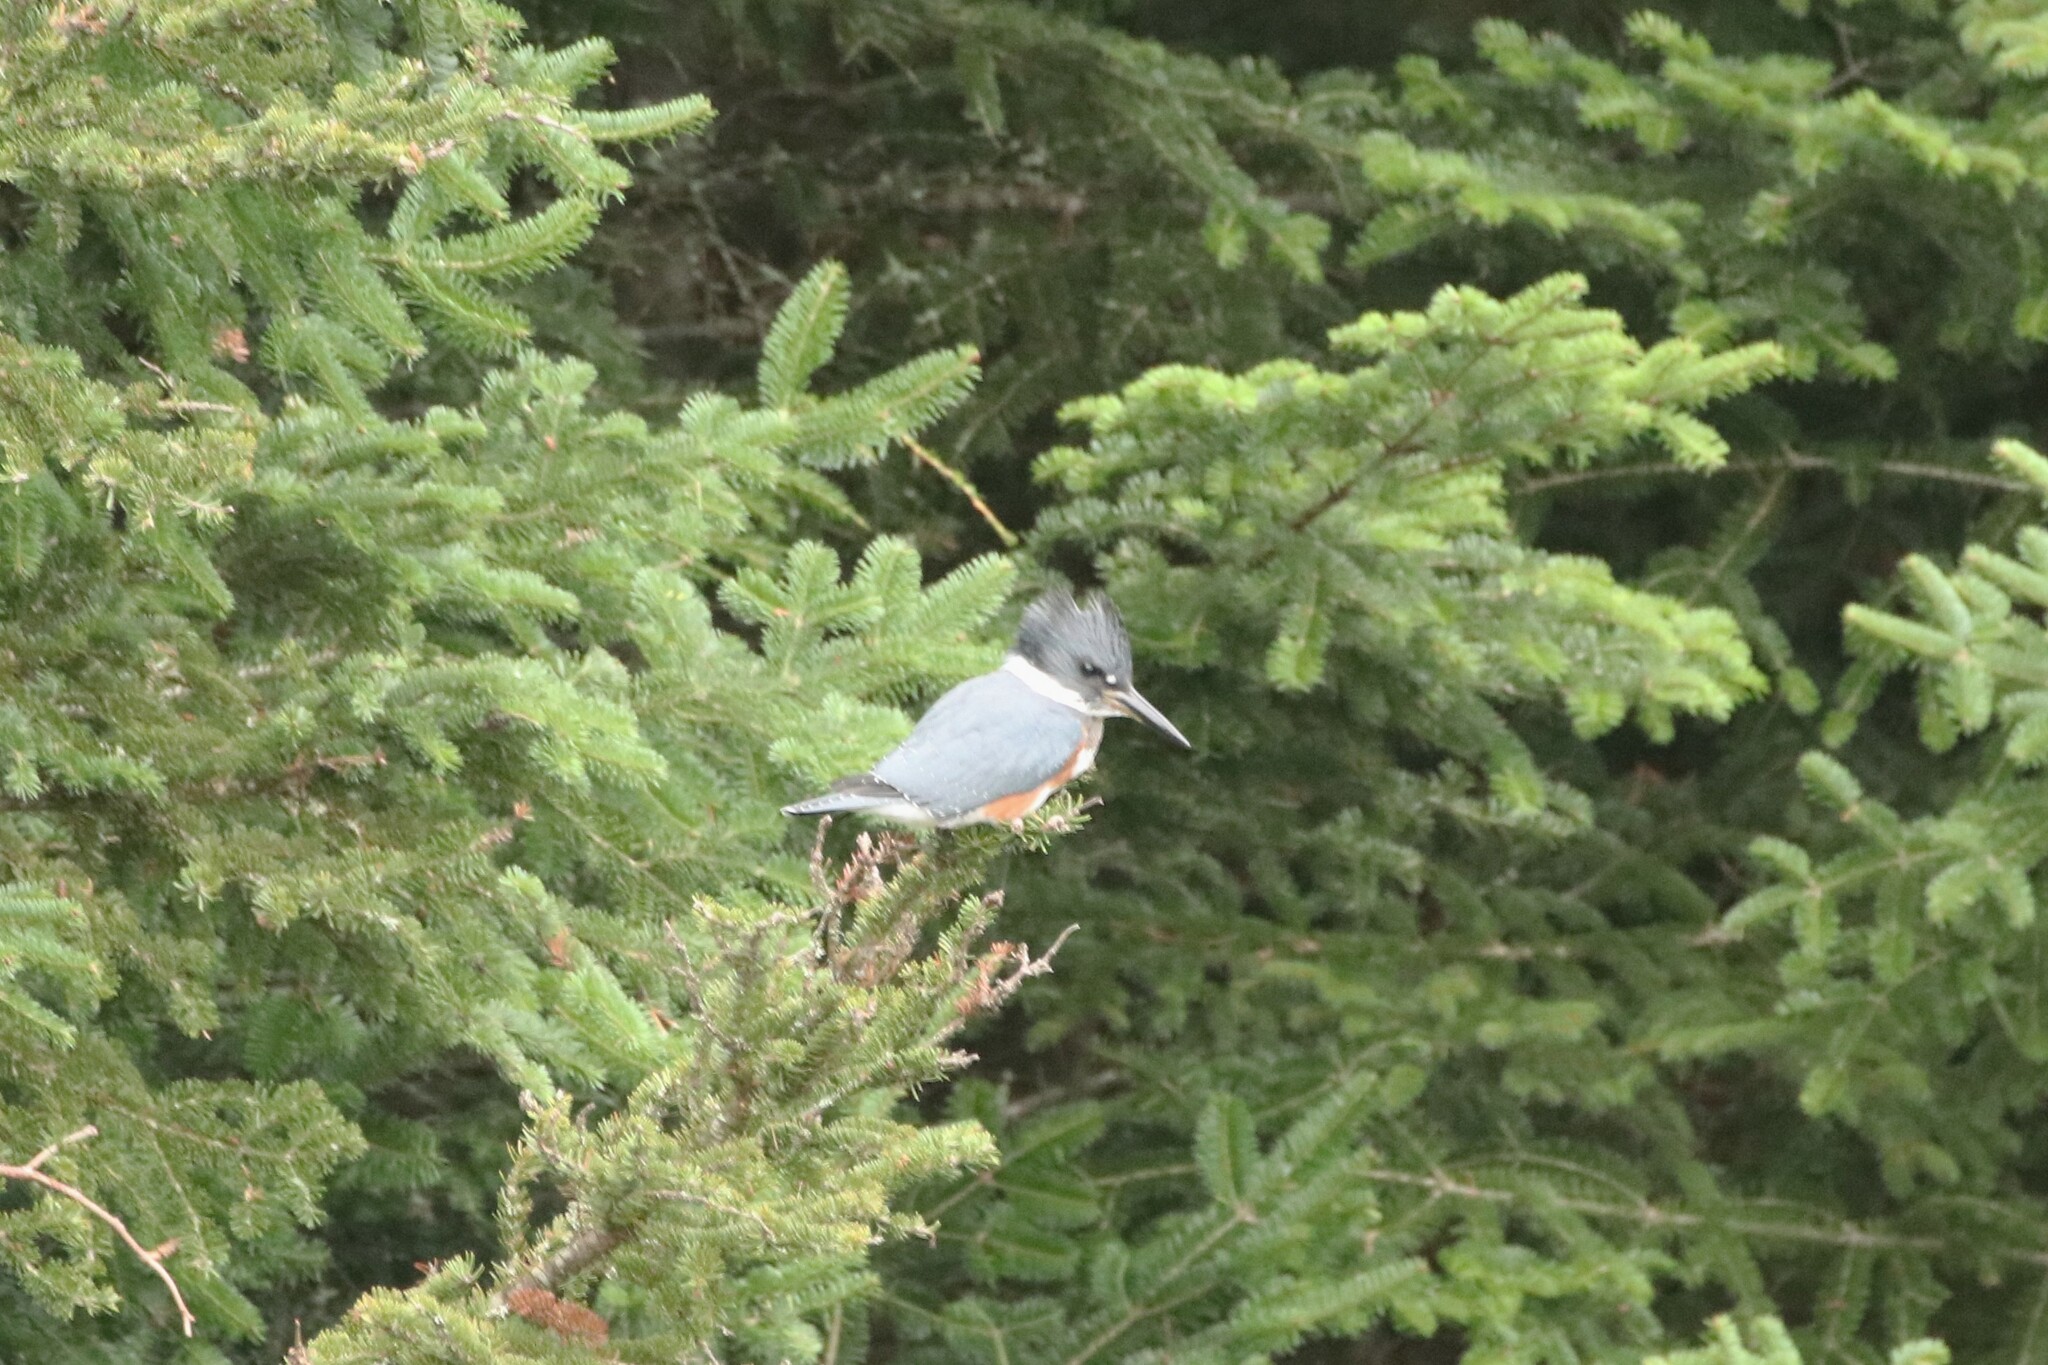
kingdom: Animalia
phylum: Chordata
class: Aves
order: Coraciiformes
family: Alcedinidae
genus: Megaceryle
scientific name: Megaceryle alcyon
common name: Belted kingfisher
